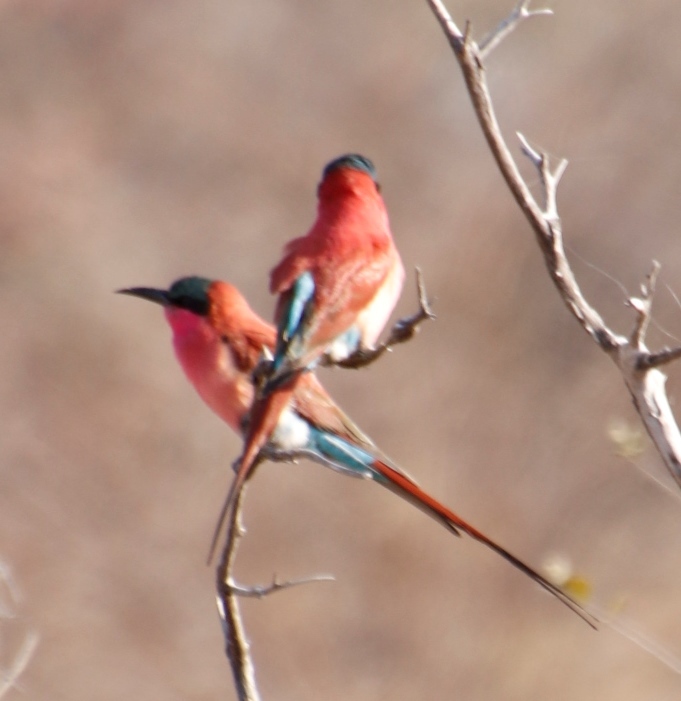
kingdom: Animalia
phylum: Chordata
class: Aves
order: Coraciiformes
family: Meropidae
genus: Merops
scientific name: Merops nubicoides
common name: Southern carmine bee-eater
